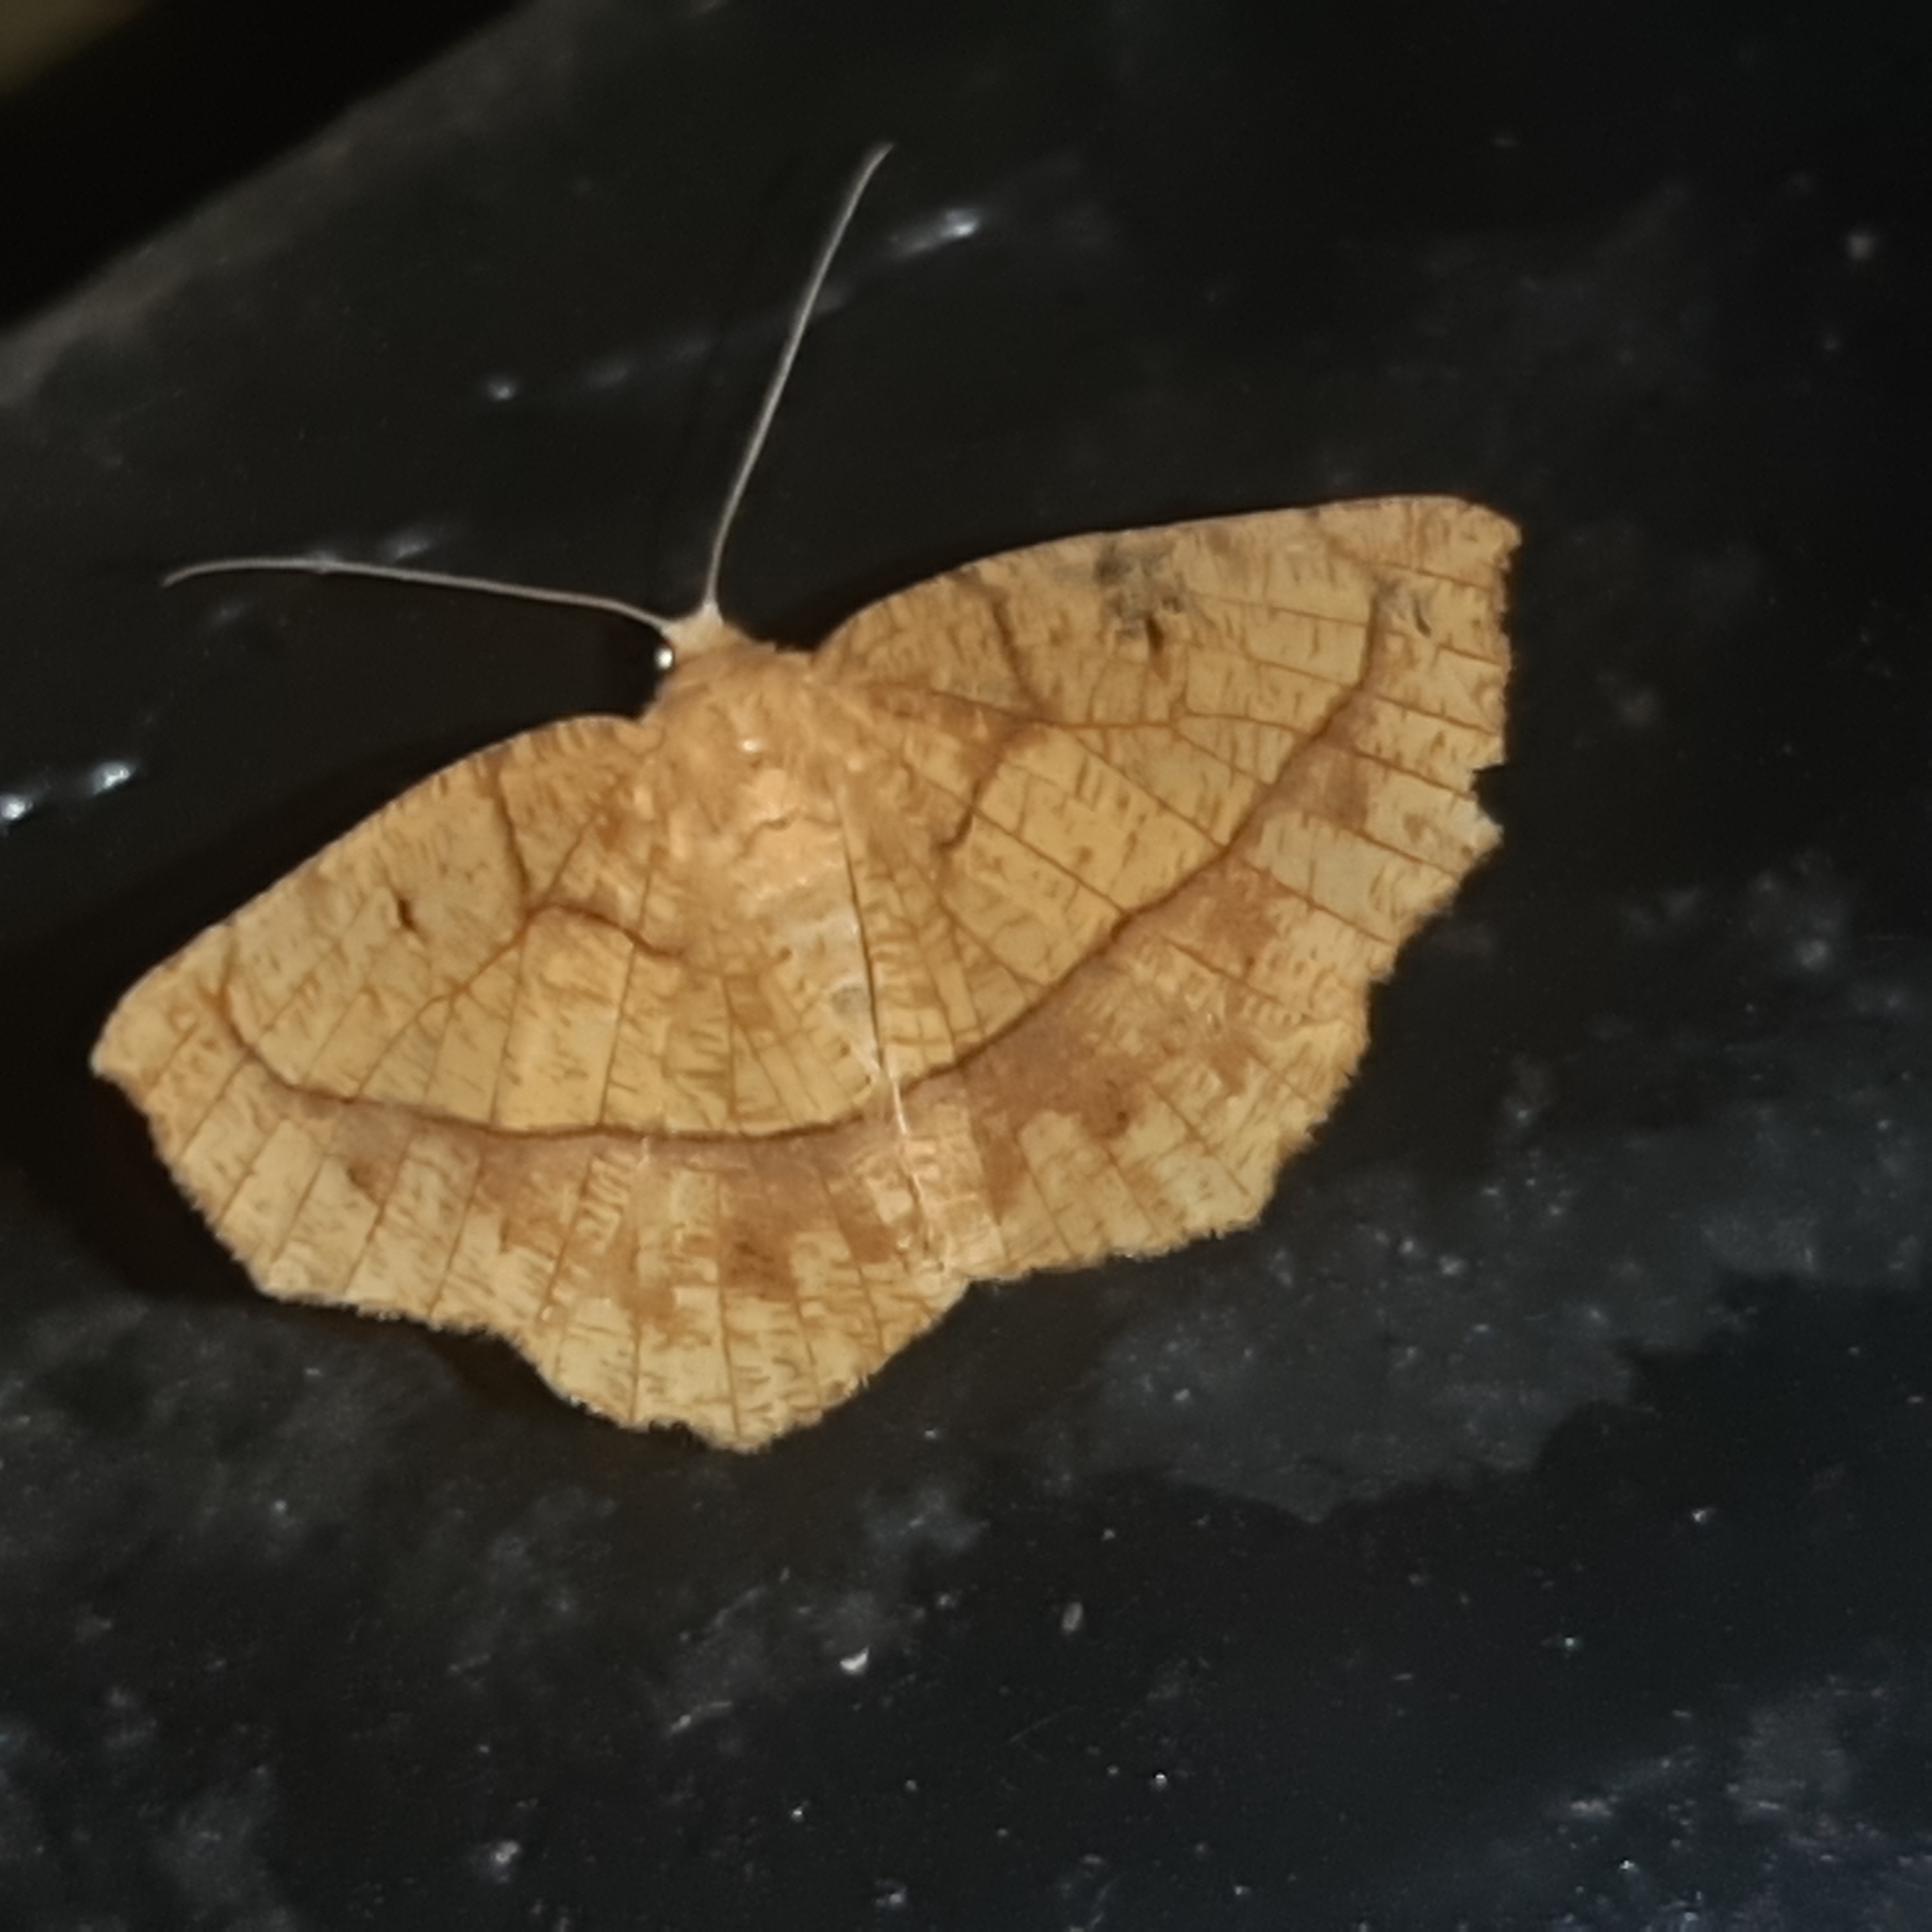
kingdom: Animalia
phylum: Arthropoda
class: Insecta
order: Lepidoptera
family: Geometridae
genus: Eusarca
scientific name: Eusarca mera
